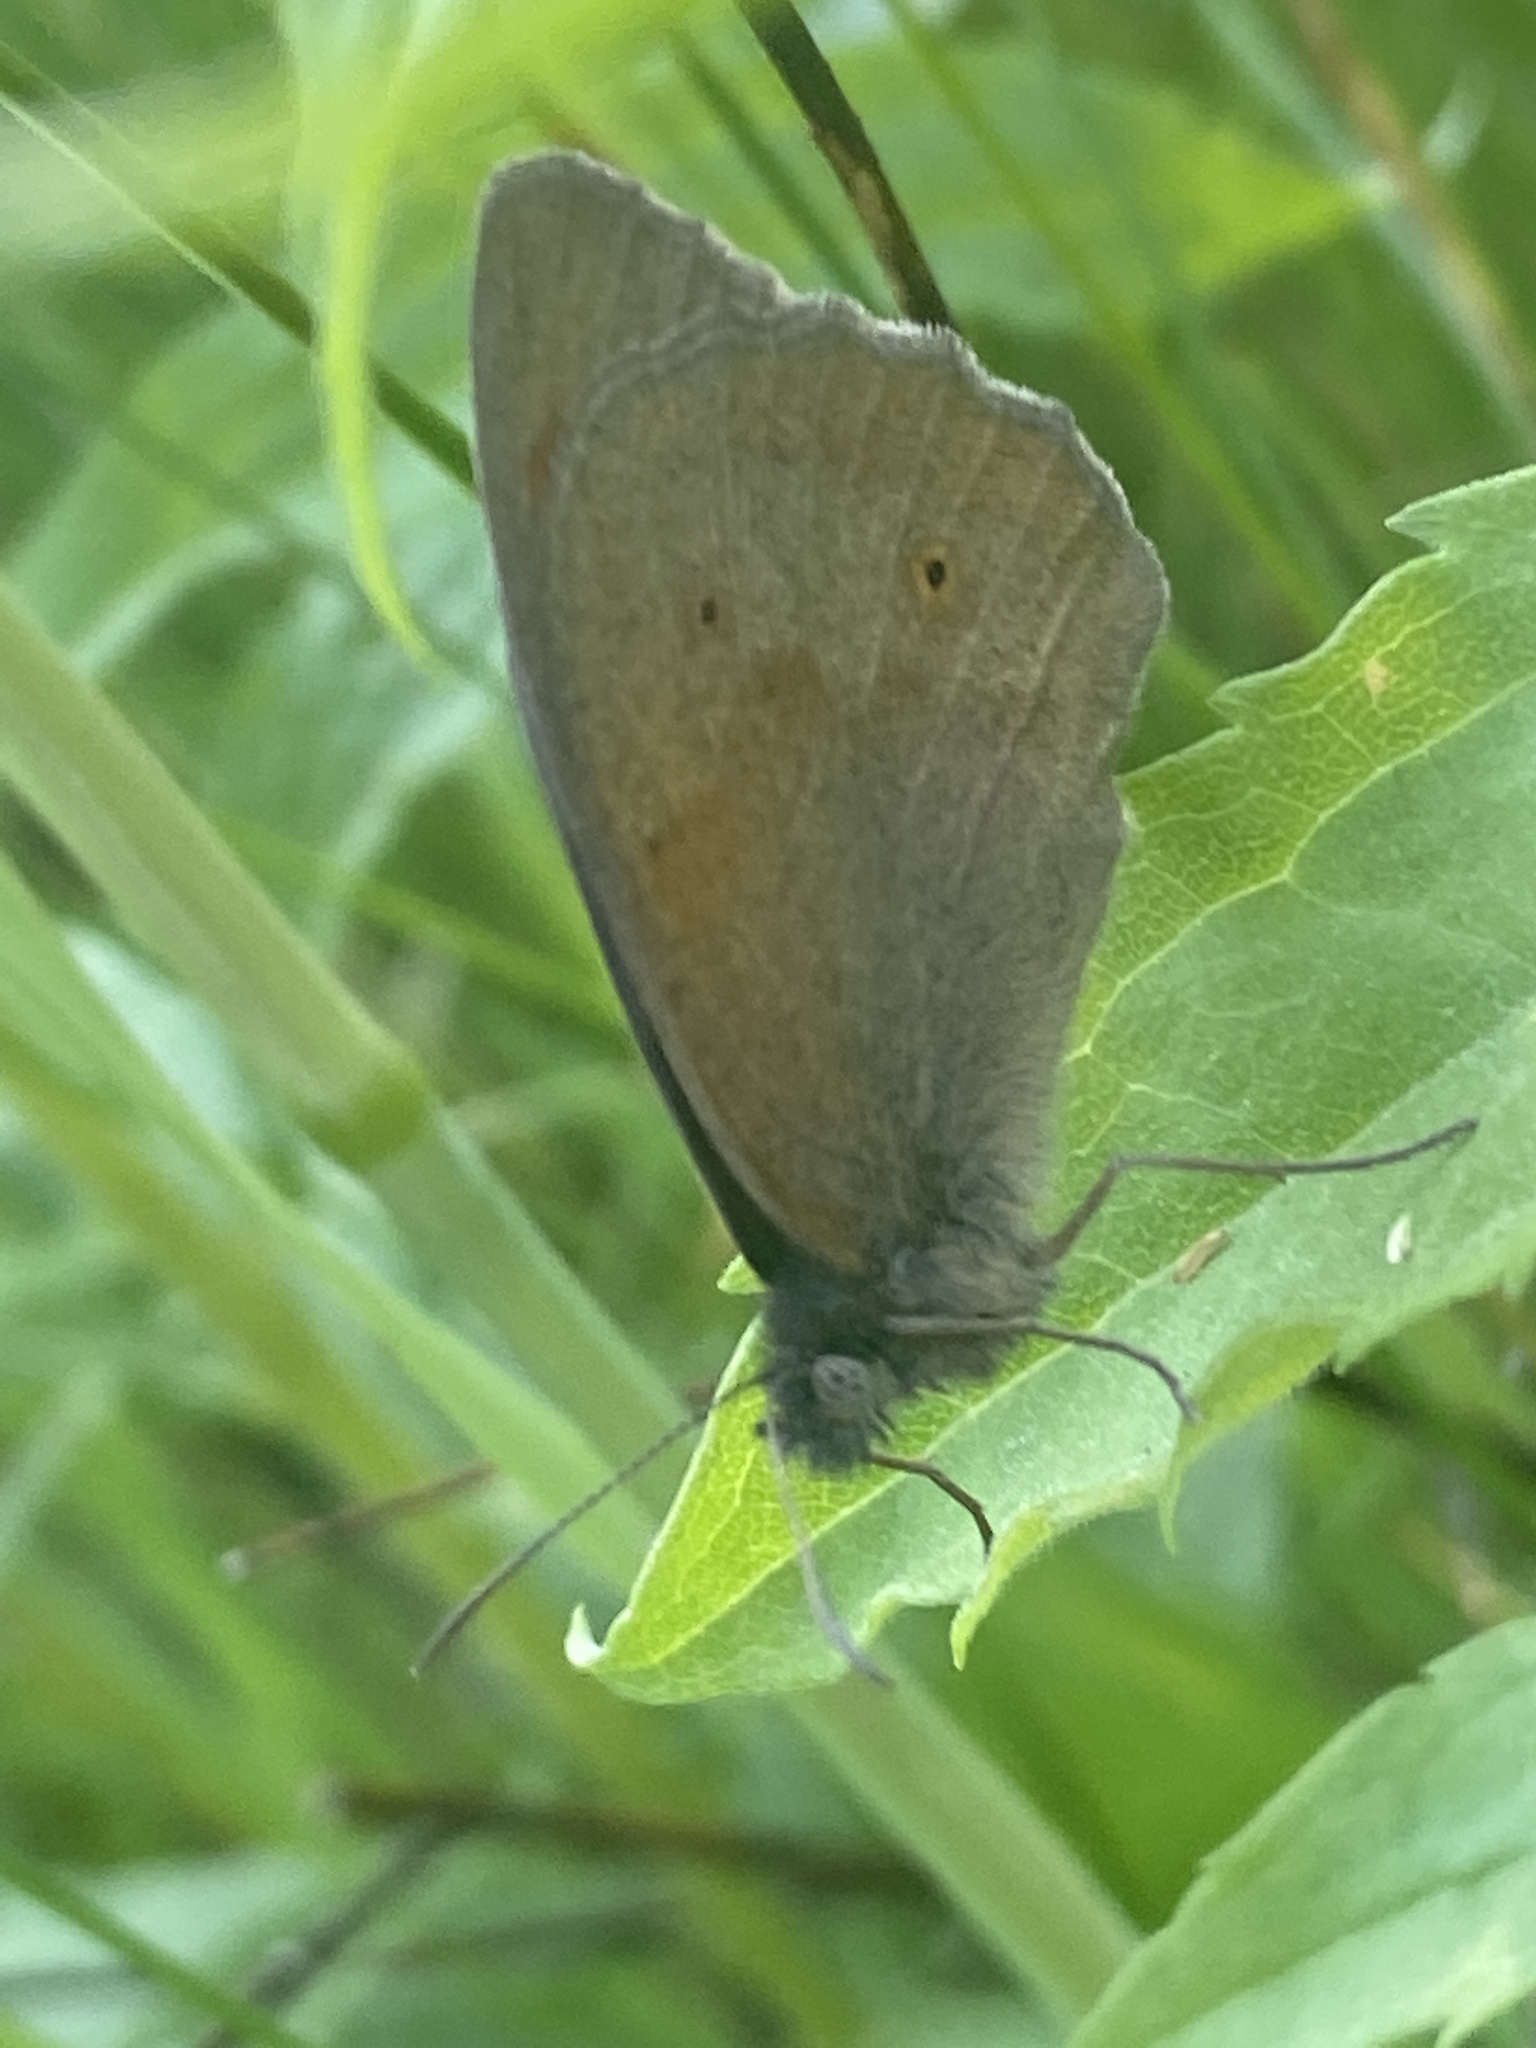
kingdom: Animalia
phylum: Arthropoda
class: Insecta
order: Lepidoptera
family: Nymphalidae
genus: Maniola
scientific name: Maniola jurtina
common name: Meadow brown
